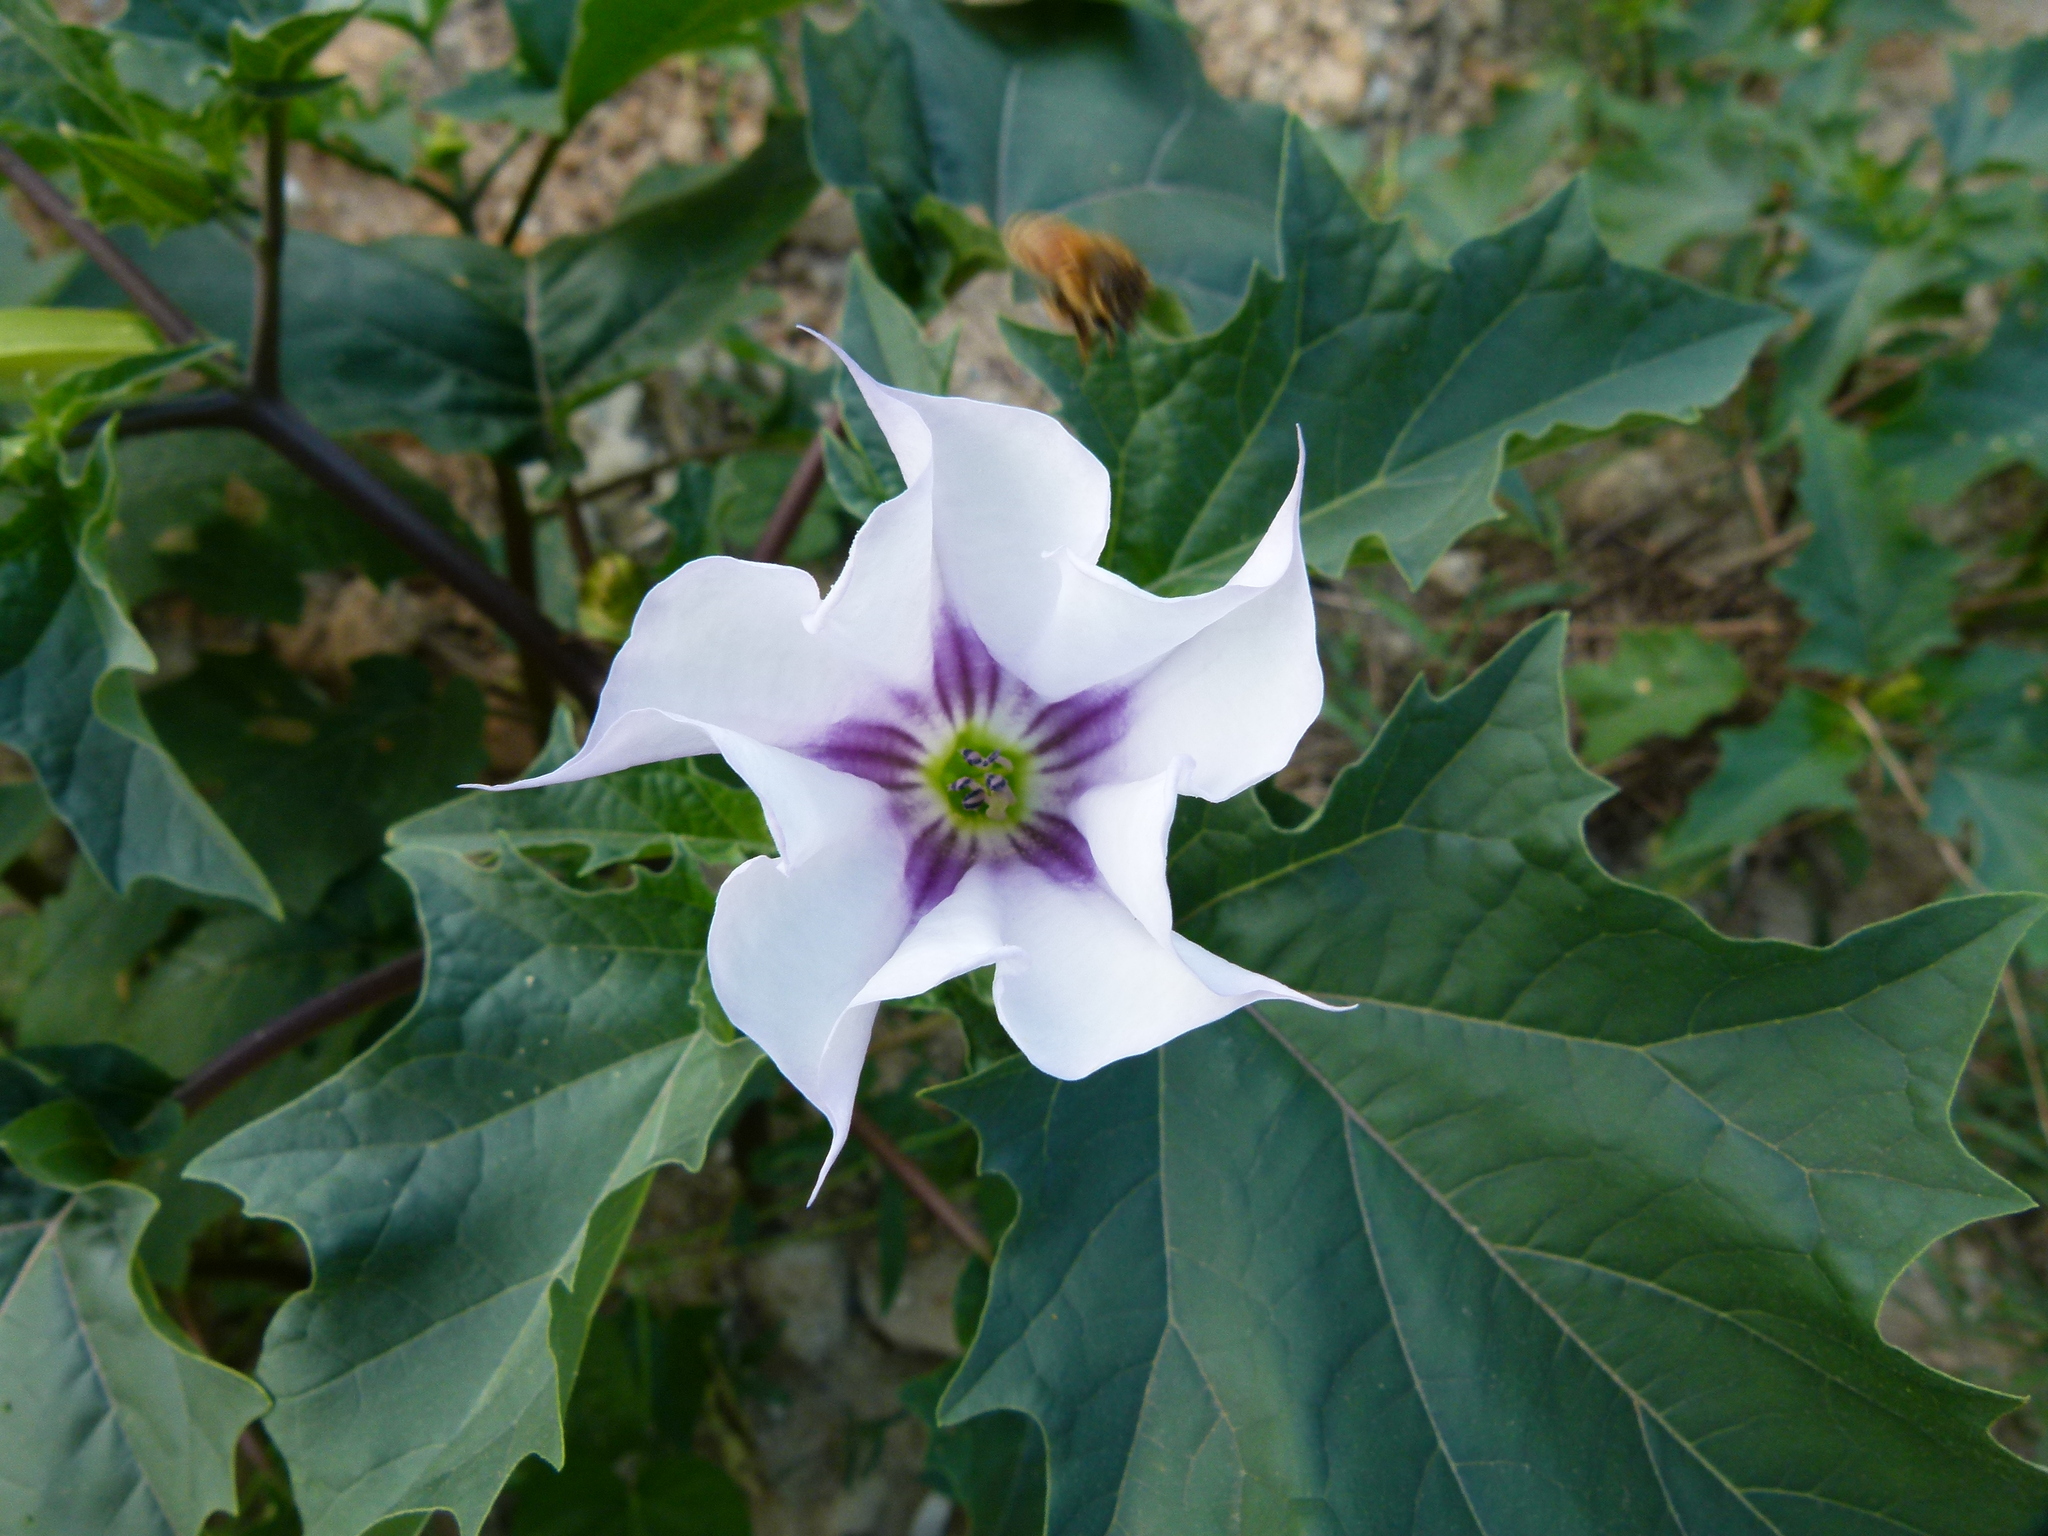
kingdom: Plantae
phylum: Tracheophyta
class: Magnoliopsida
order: Solanales
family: Solanaceae
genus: Datura
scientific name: Datura stramonium
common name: Thorn-apple
